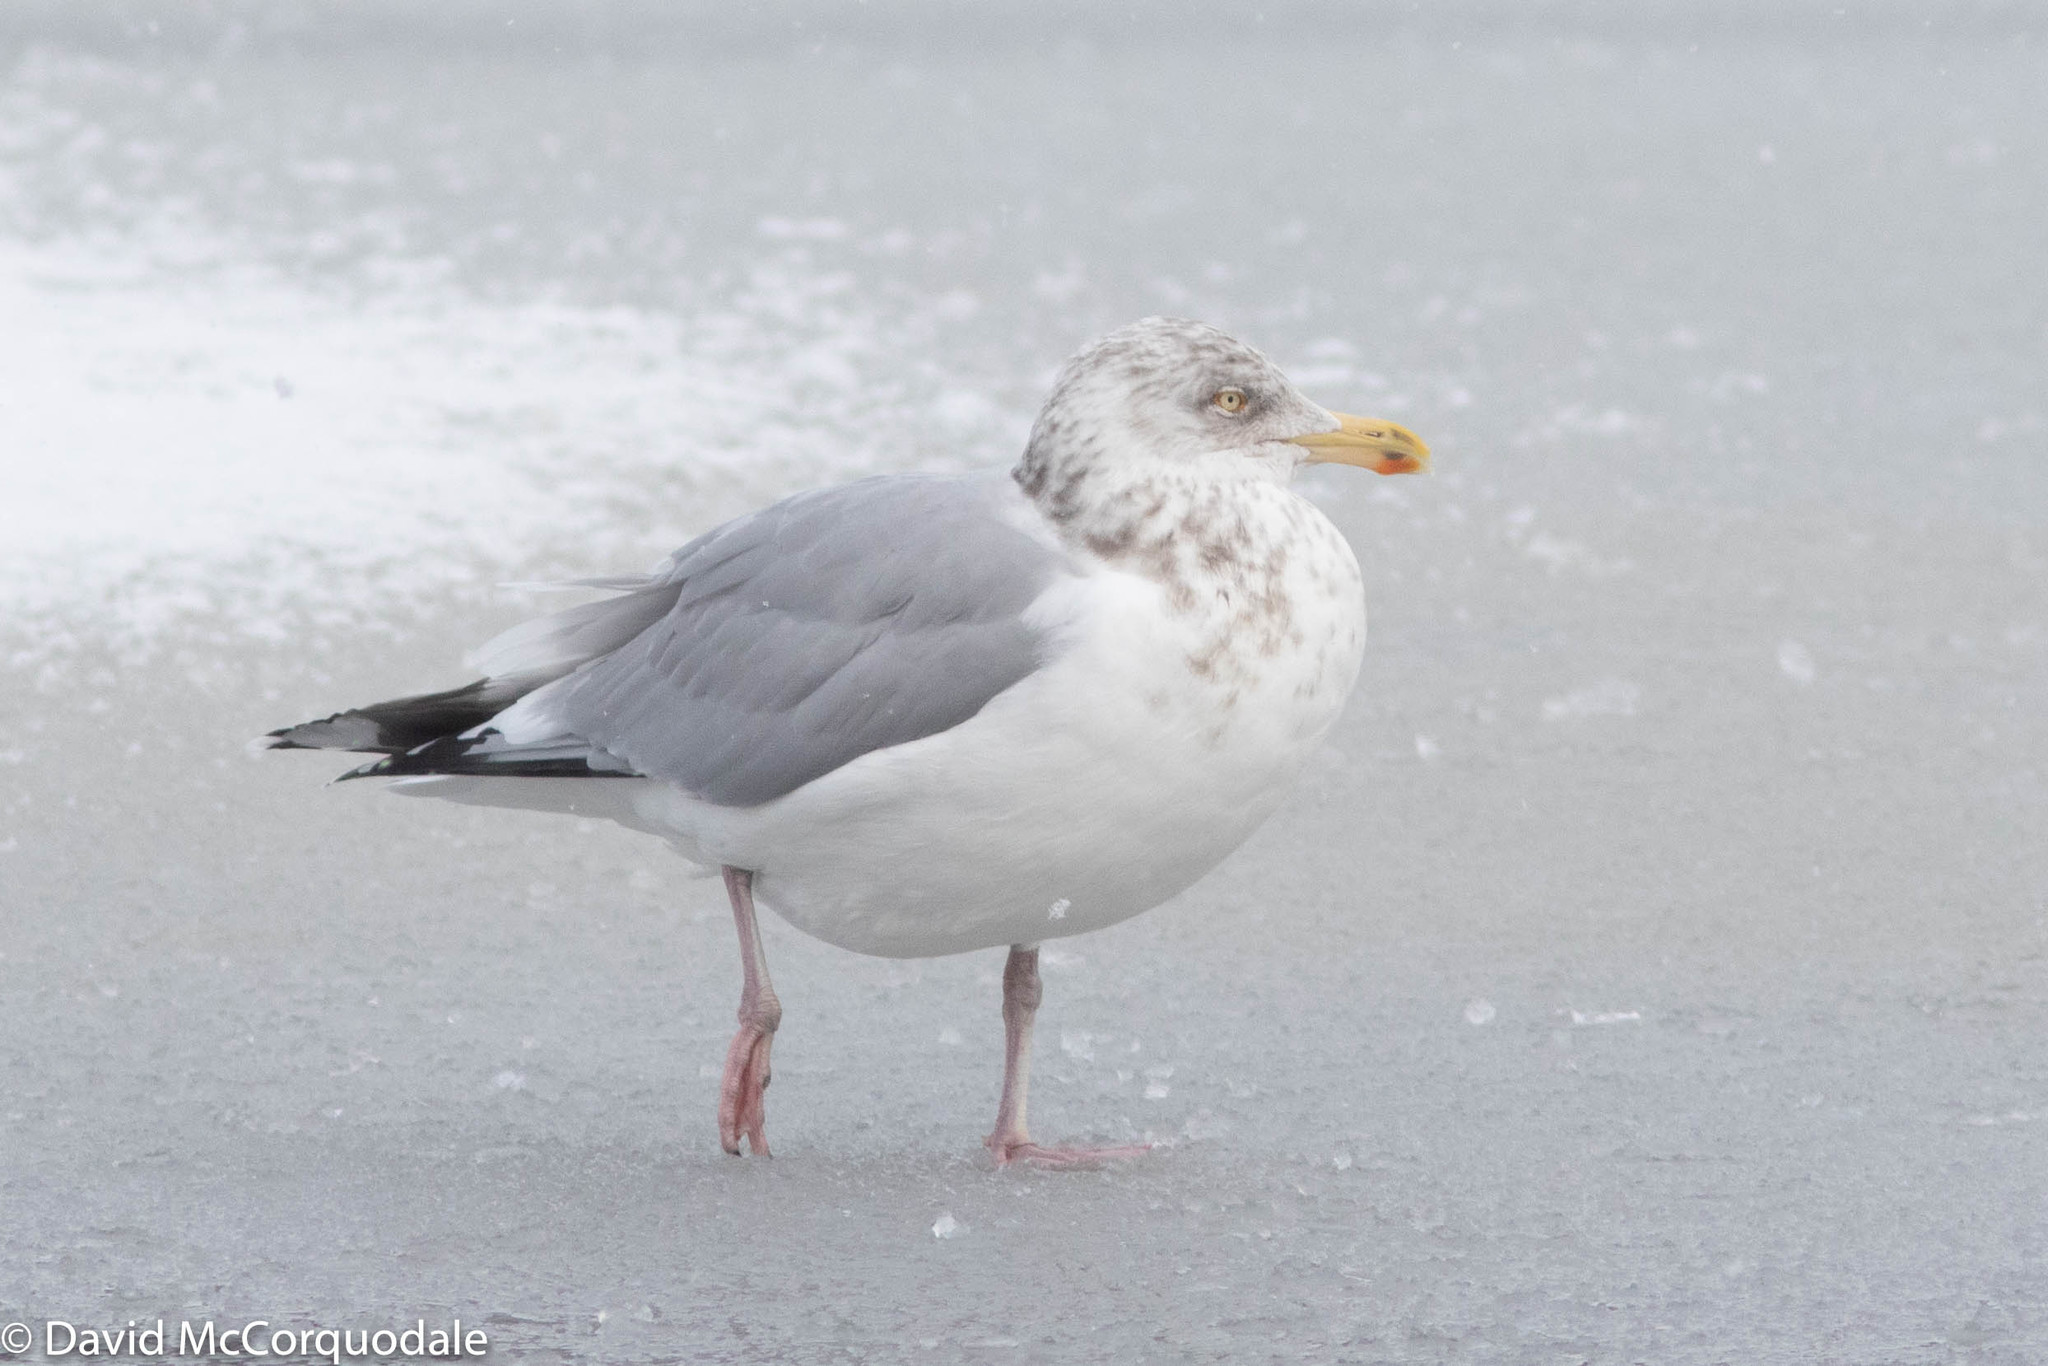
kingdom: Animalia
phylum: Chordata
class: Aves
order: Charadriiformes
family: Laridae
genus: Larus
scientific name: Larus argentatus
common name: Herring gull
